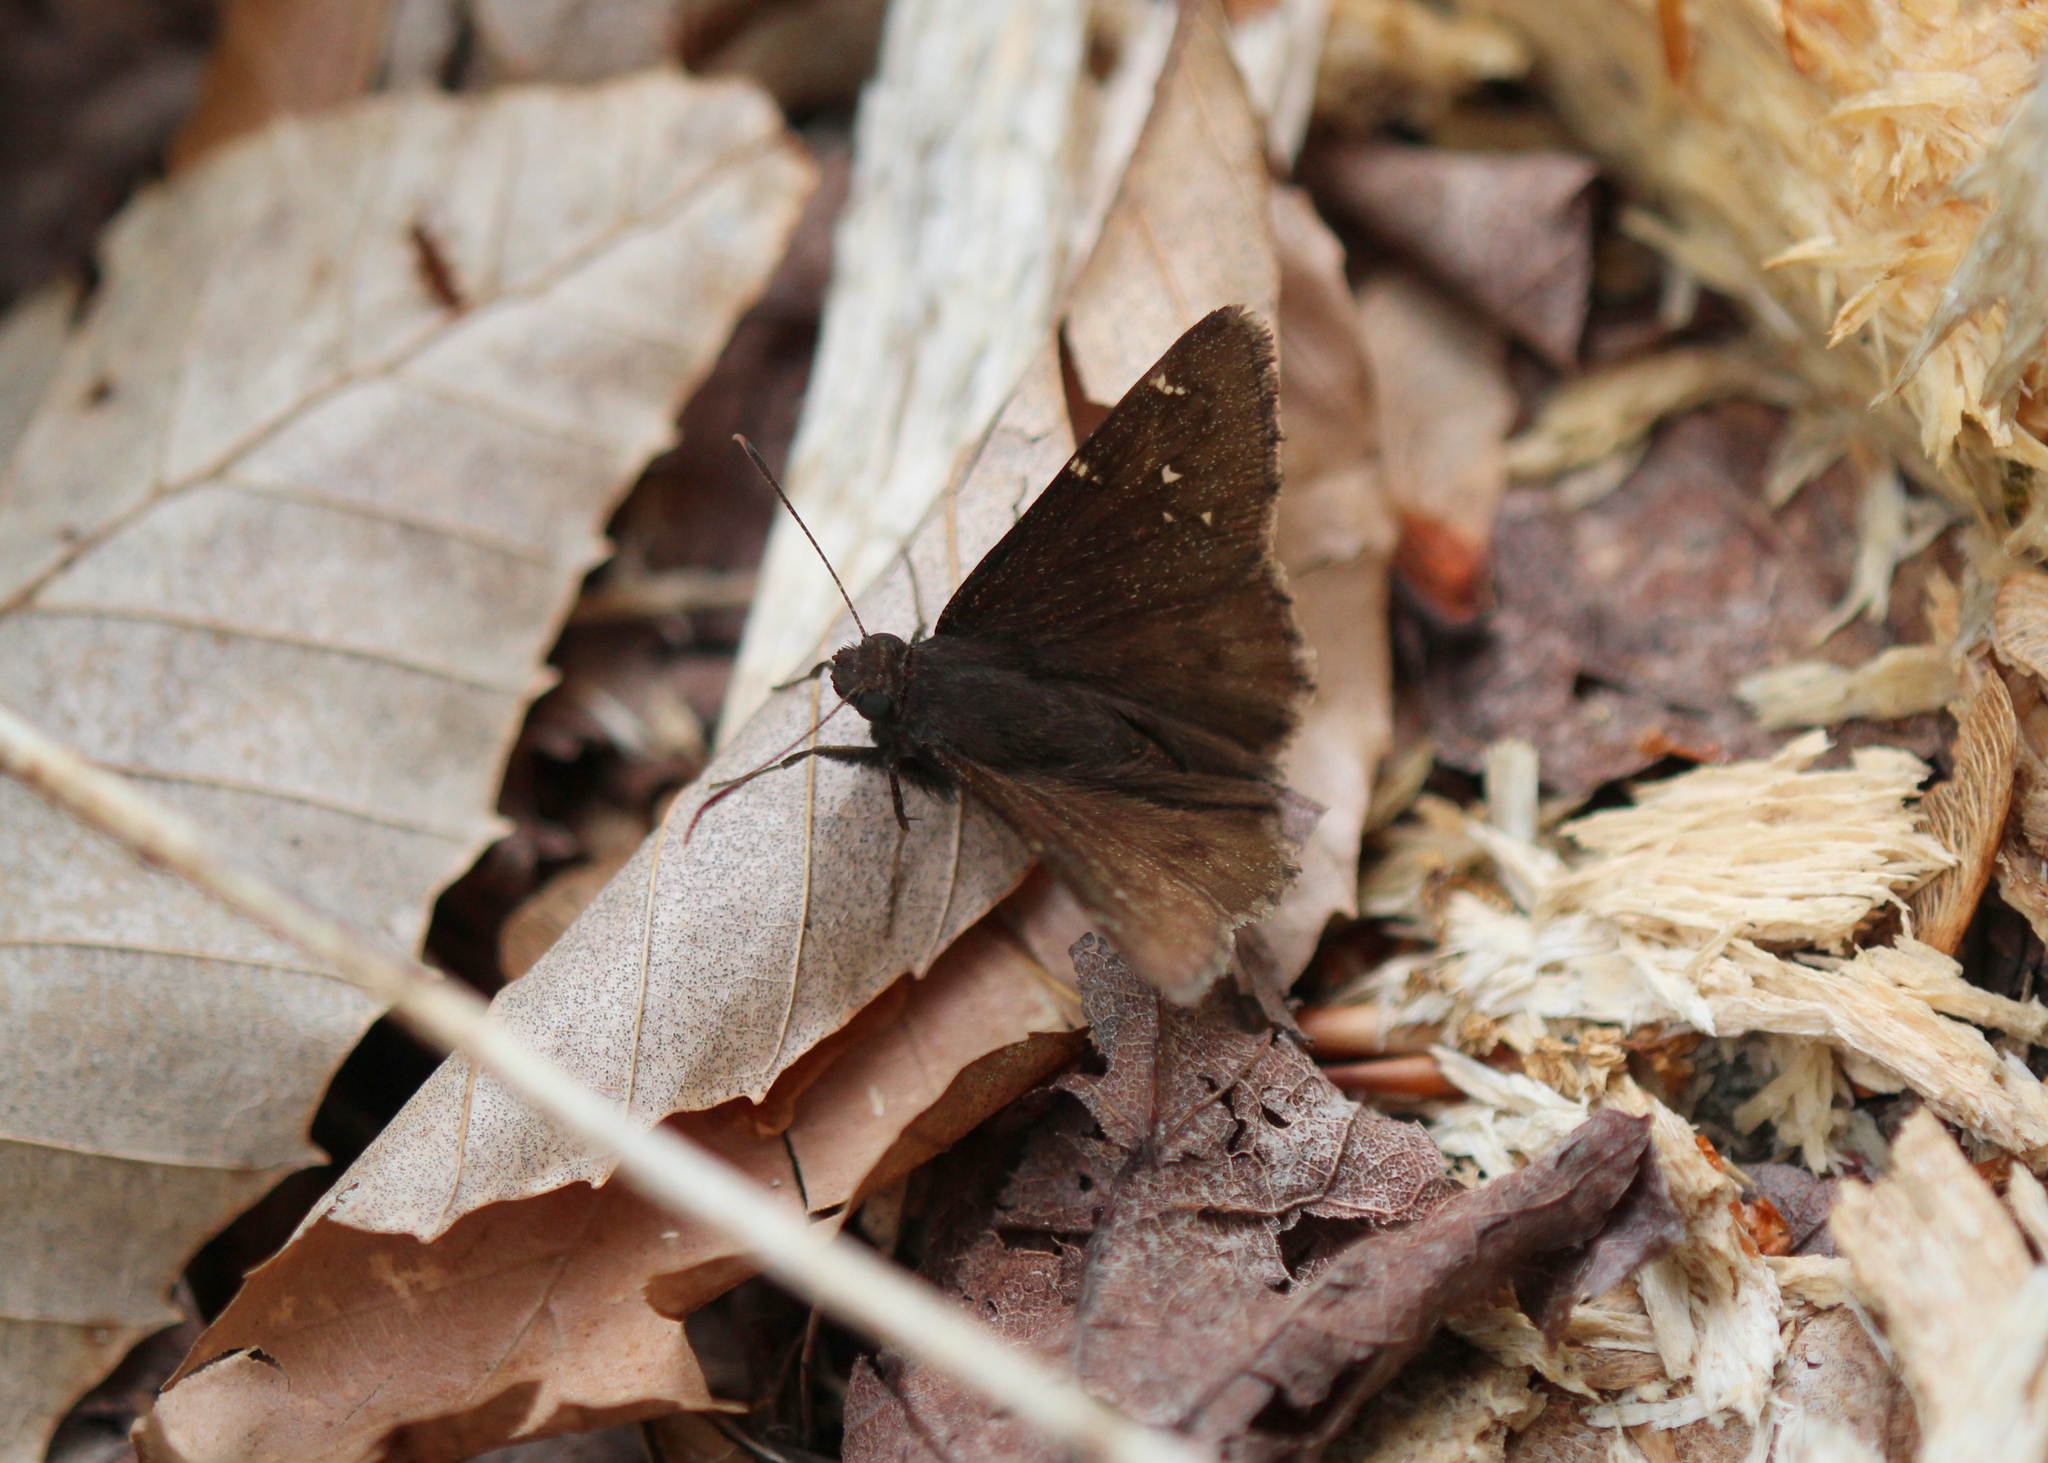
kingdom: Animalia
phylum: Arthropoda
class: Insecta
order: Lepidoptera
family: Hesperiidae
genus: Thorybes
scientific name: Thorybes pylades
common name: Northern cloudywing
